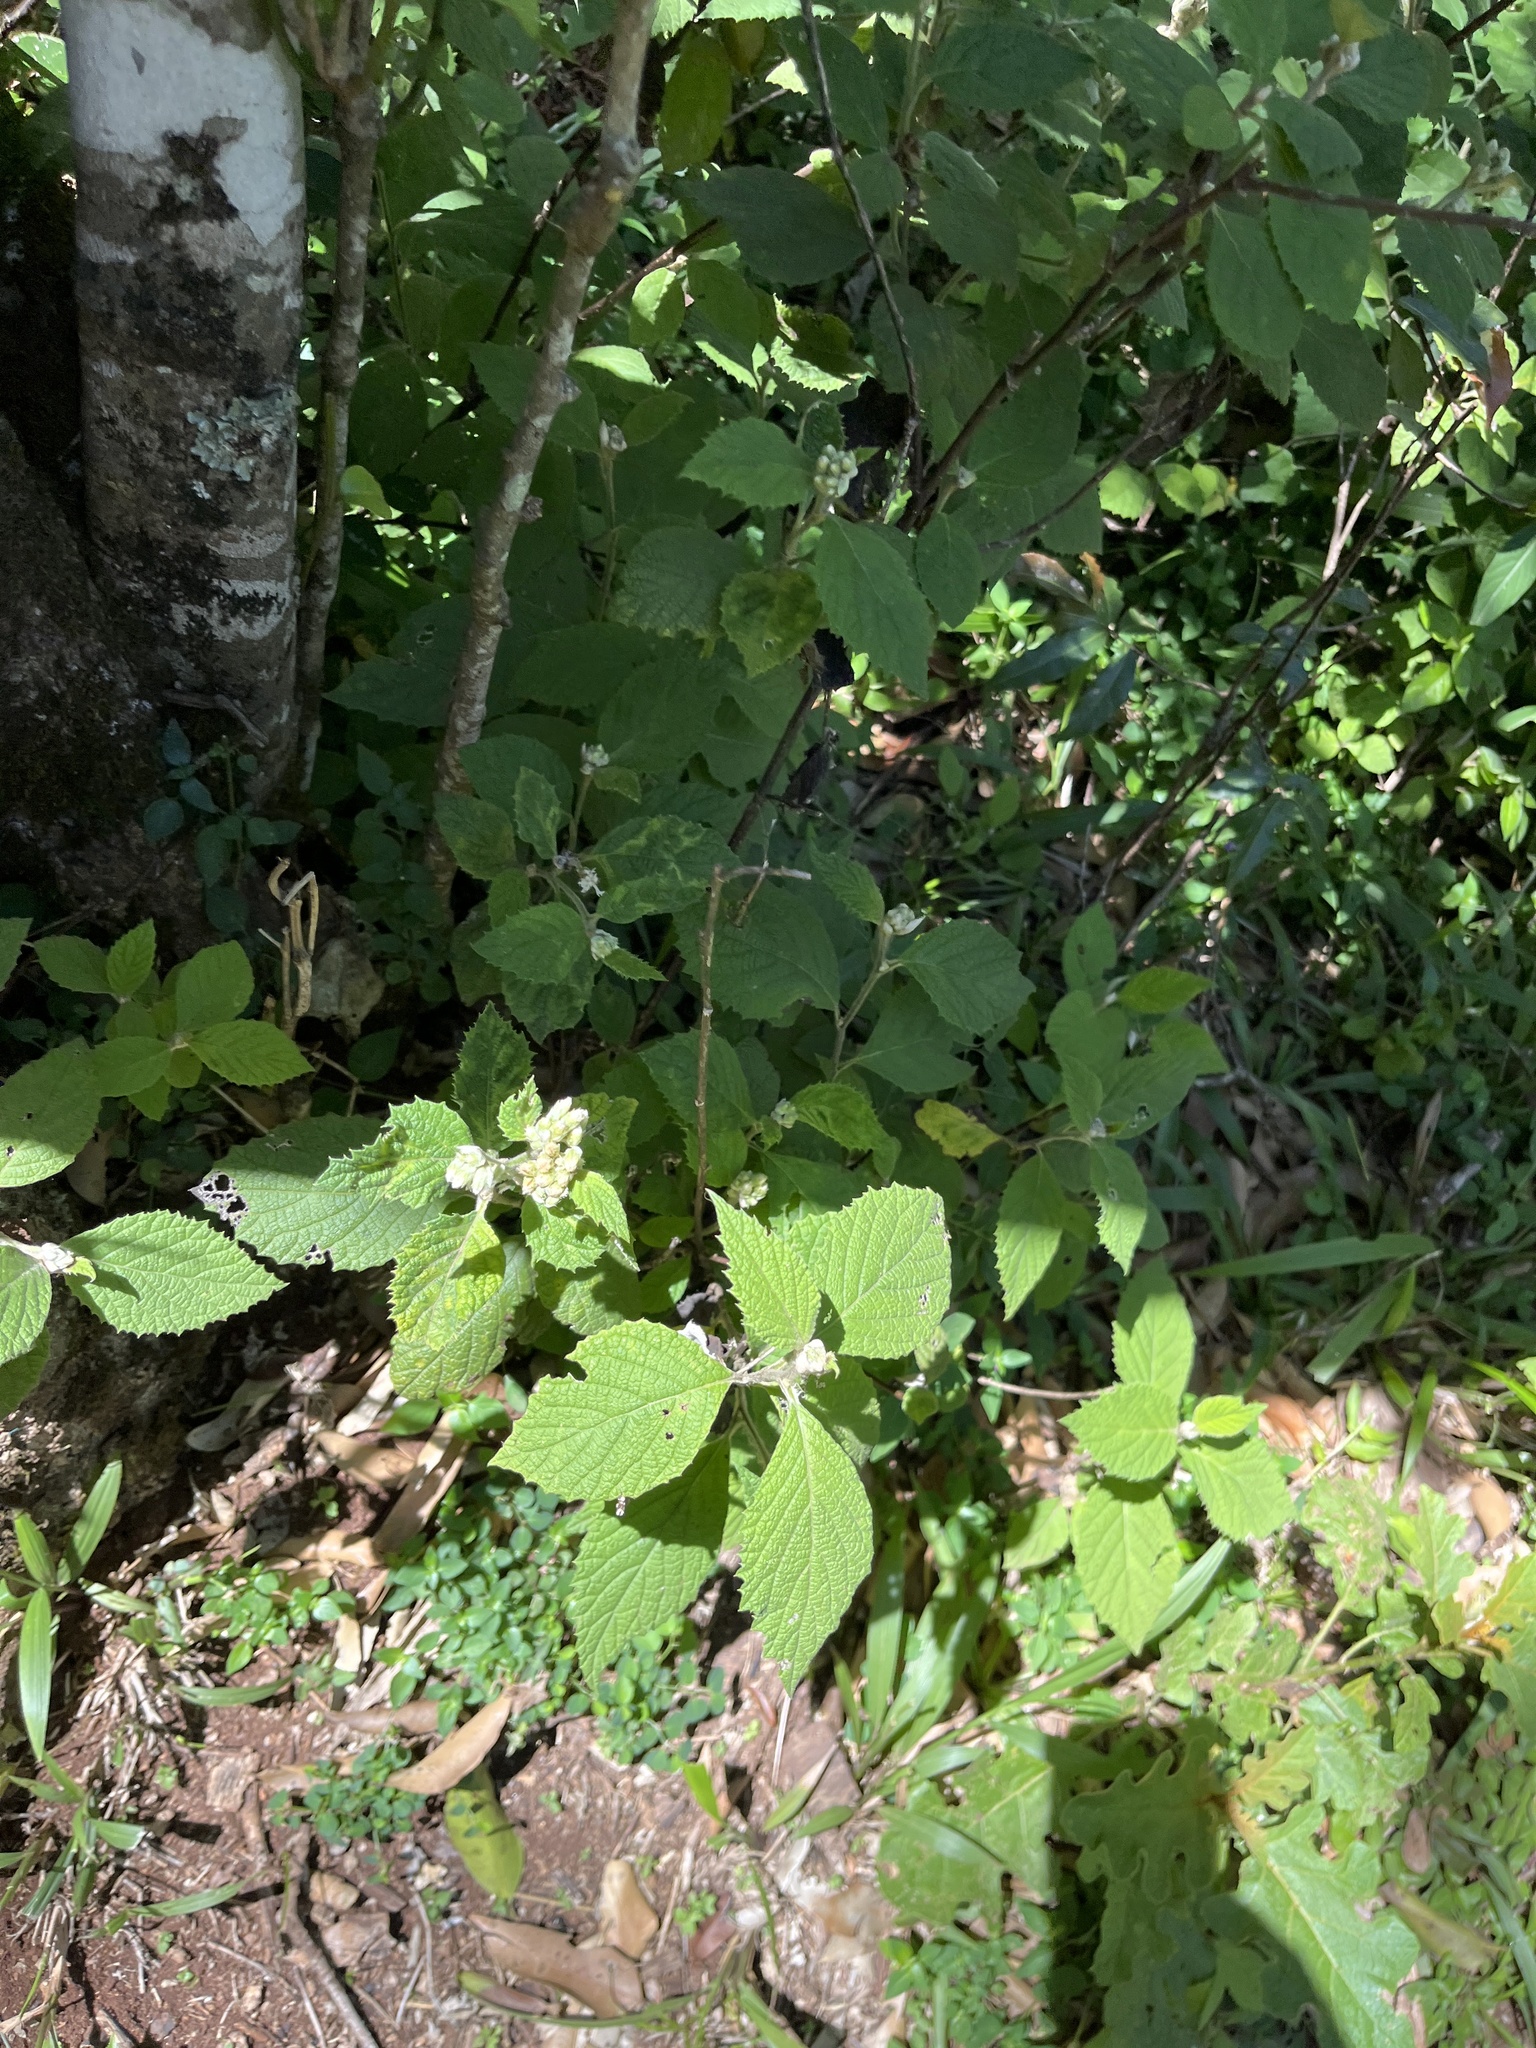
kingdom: Plantae
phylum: Tracheophyta
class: Magnoliopsida
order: Lamiales
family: Verbenaceae
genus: Lantana
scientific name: Lantana camara
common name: Lantana
